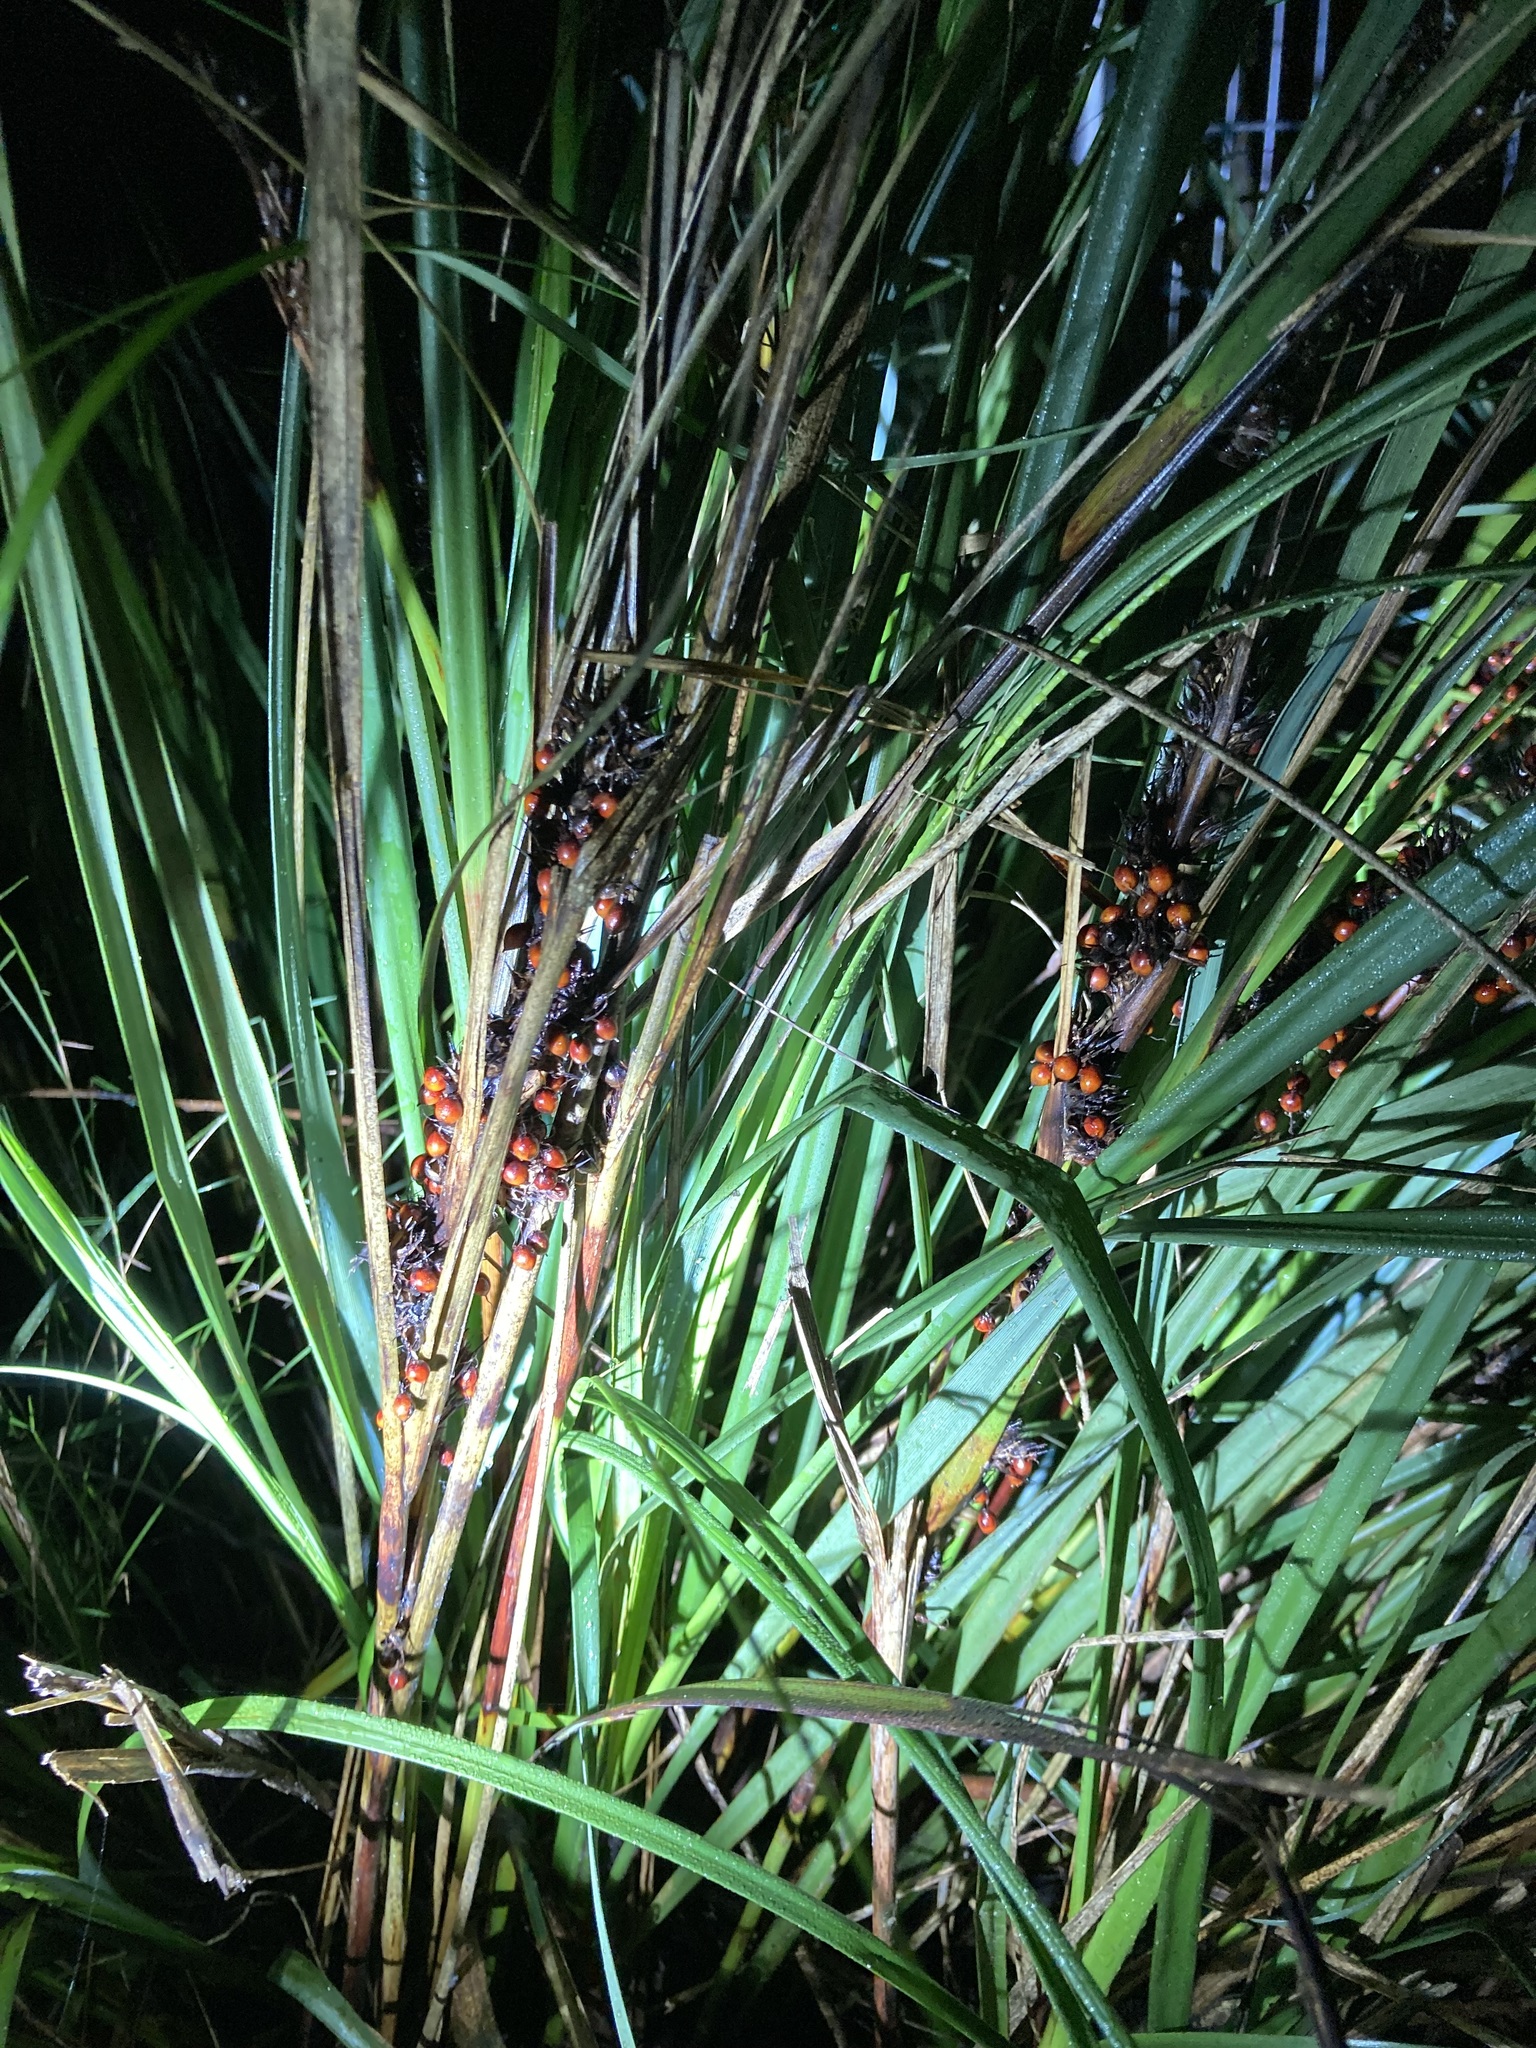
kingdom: Plantae
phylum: Tracheophyta
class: Liliopsida
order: Poales
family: Cyperaceae
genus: Gahnia
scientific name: Gahnia aspera
